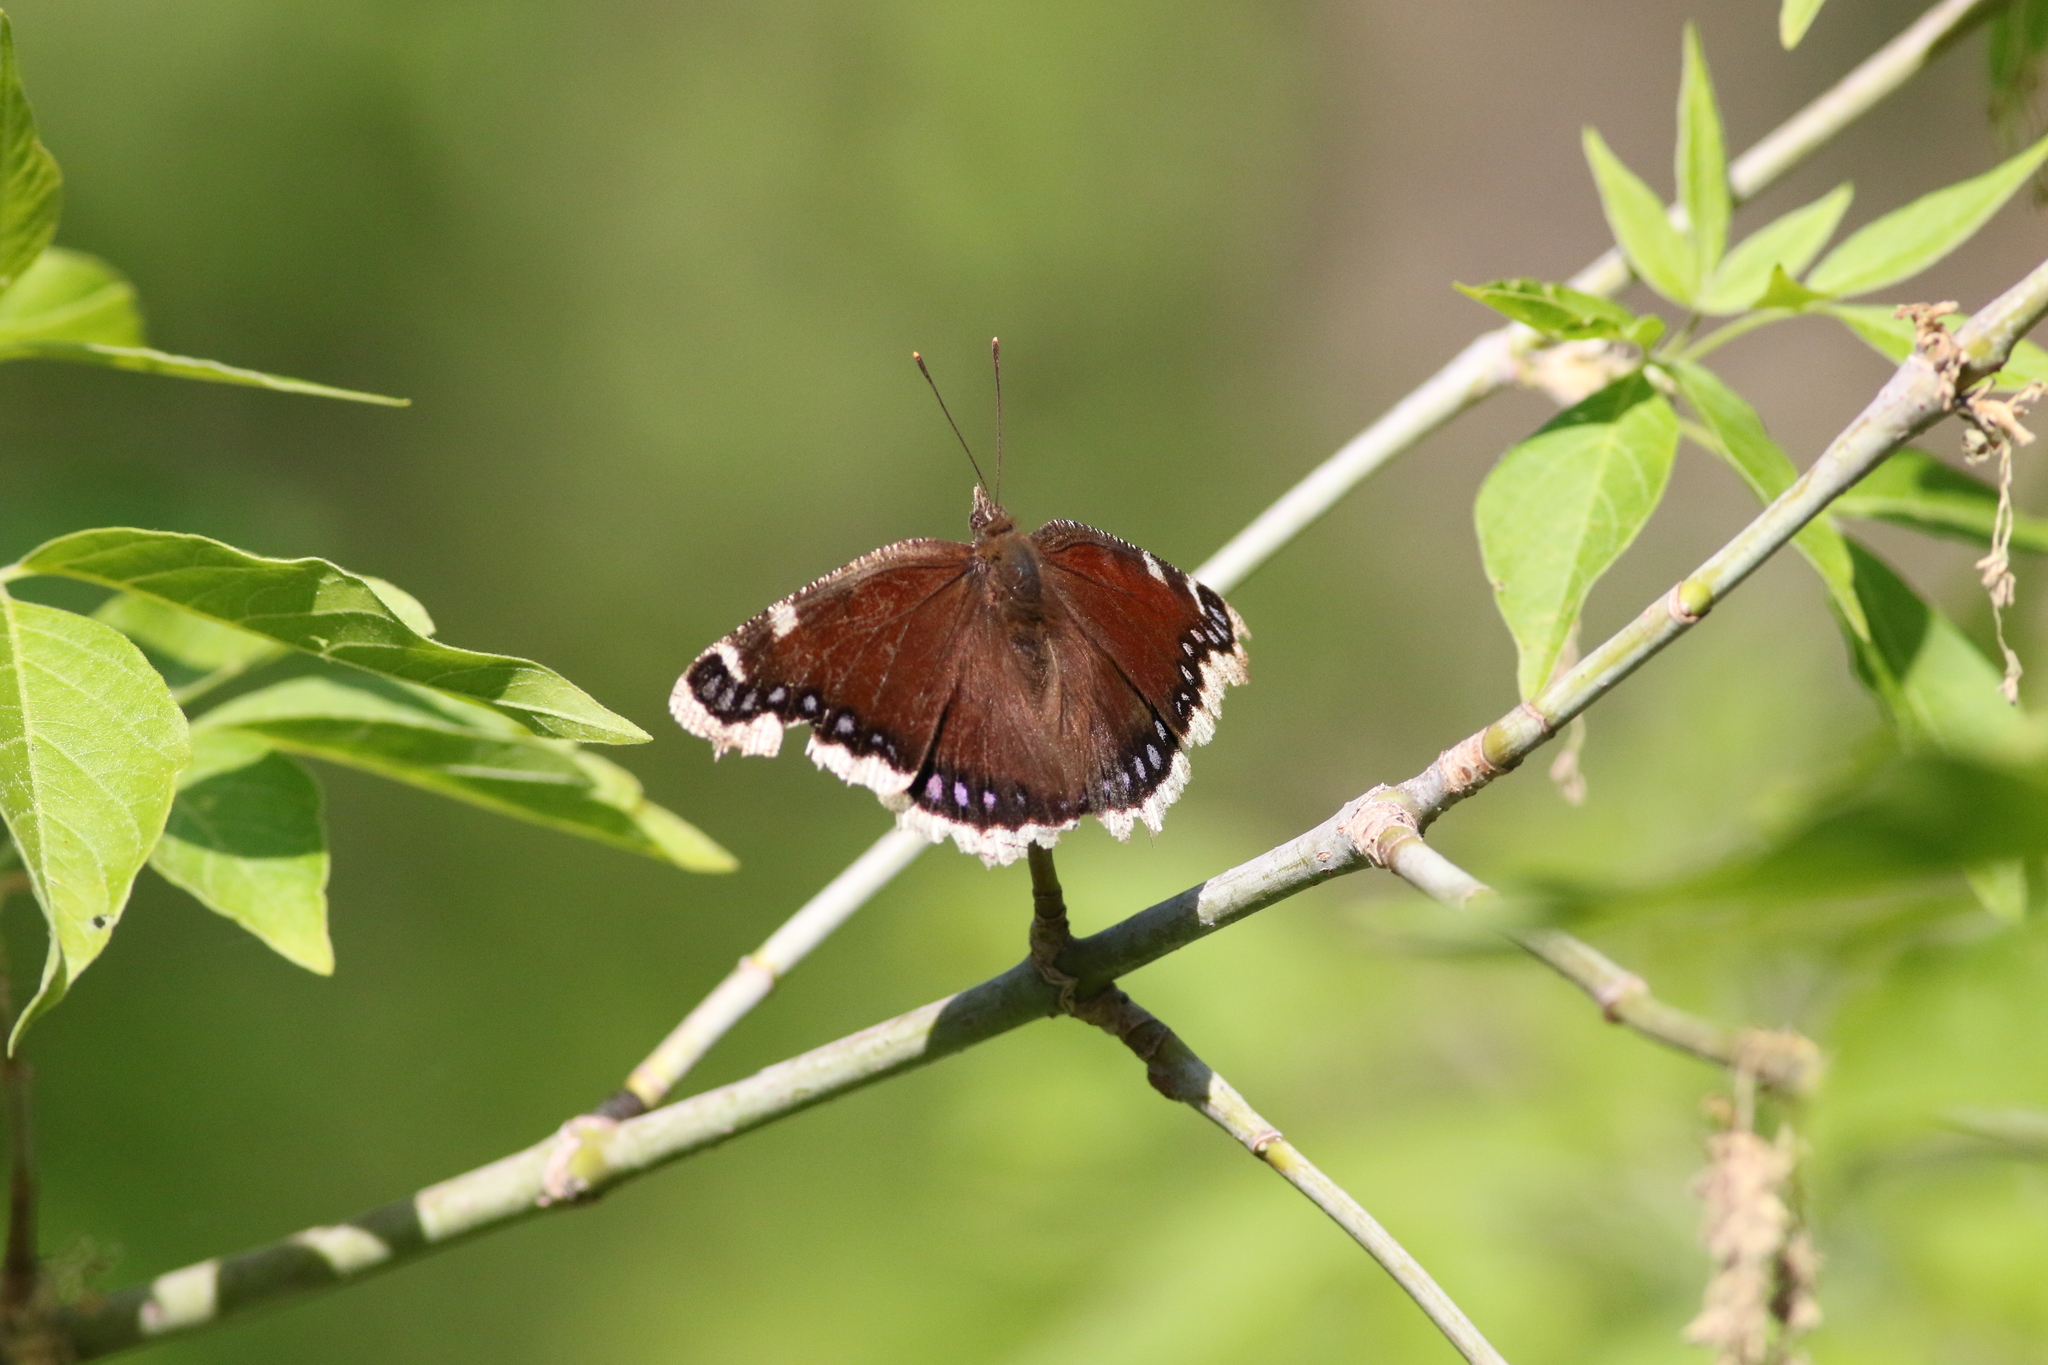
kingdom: Animalia
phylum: Arthropoda
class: Insecta
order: Lepidoptera
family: Nymphalidae
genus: Nymphalis
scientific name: Nymphalis antiopa
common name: Camberwell beauty
